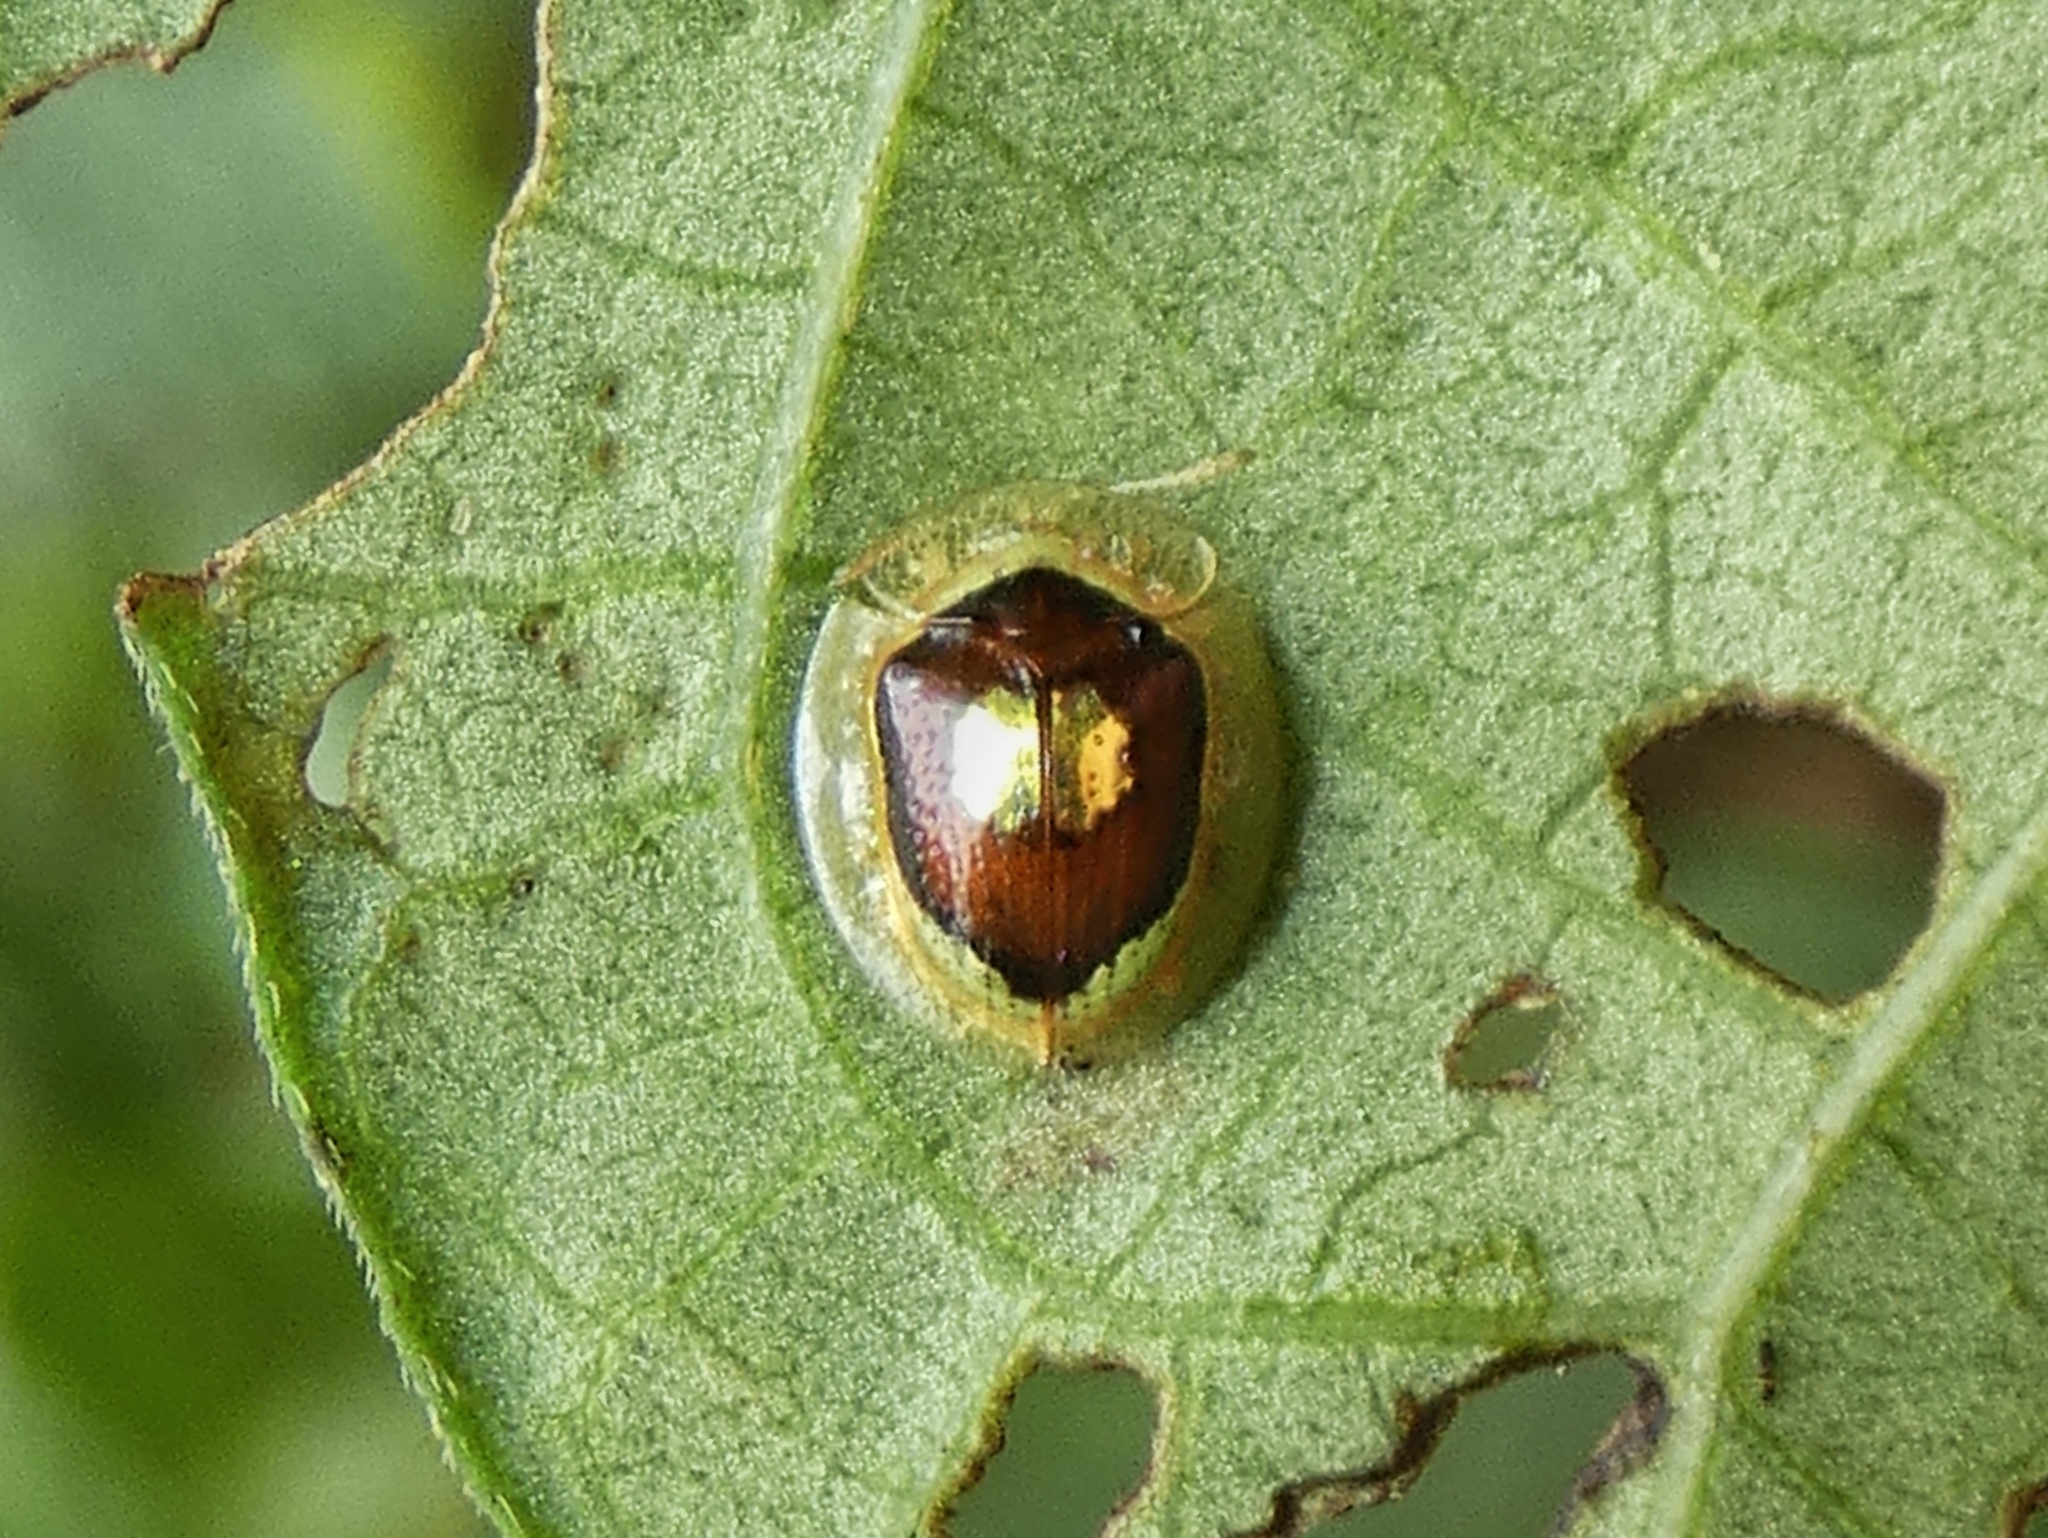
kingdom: Animalia
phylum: Arthropoda
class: Insecta
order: Coleoptera
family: Chrysomelidae
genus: Charidotella
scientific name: Charidotella puella
